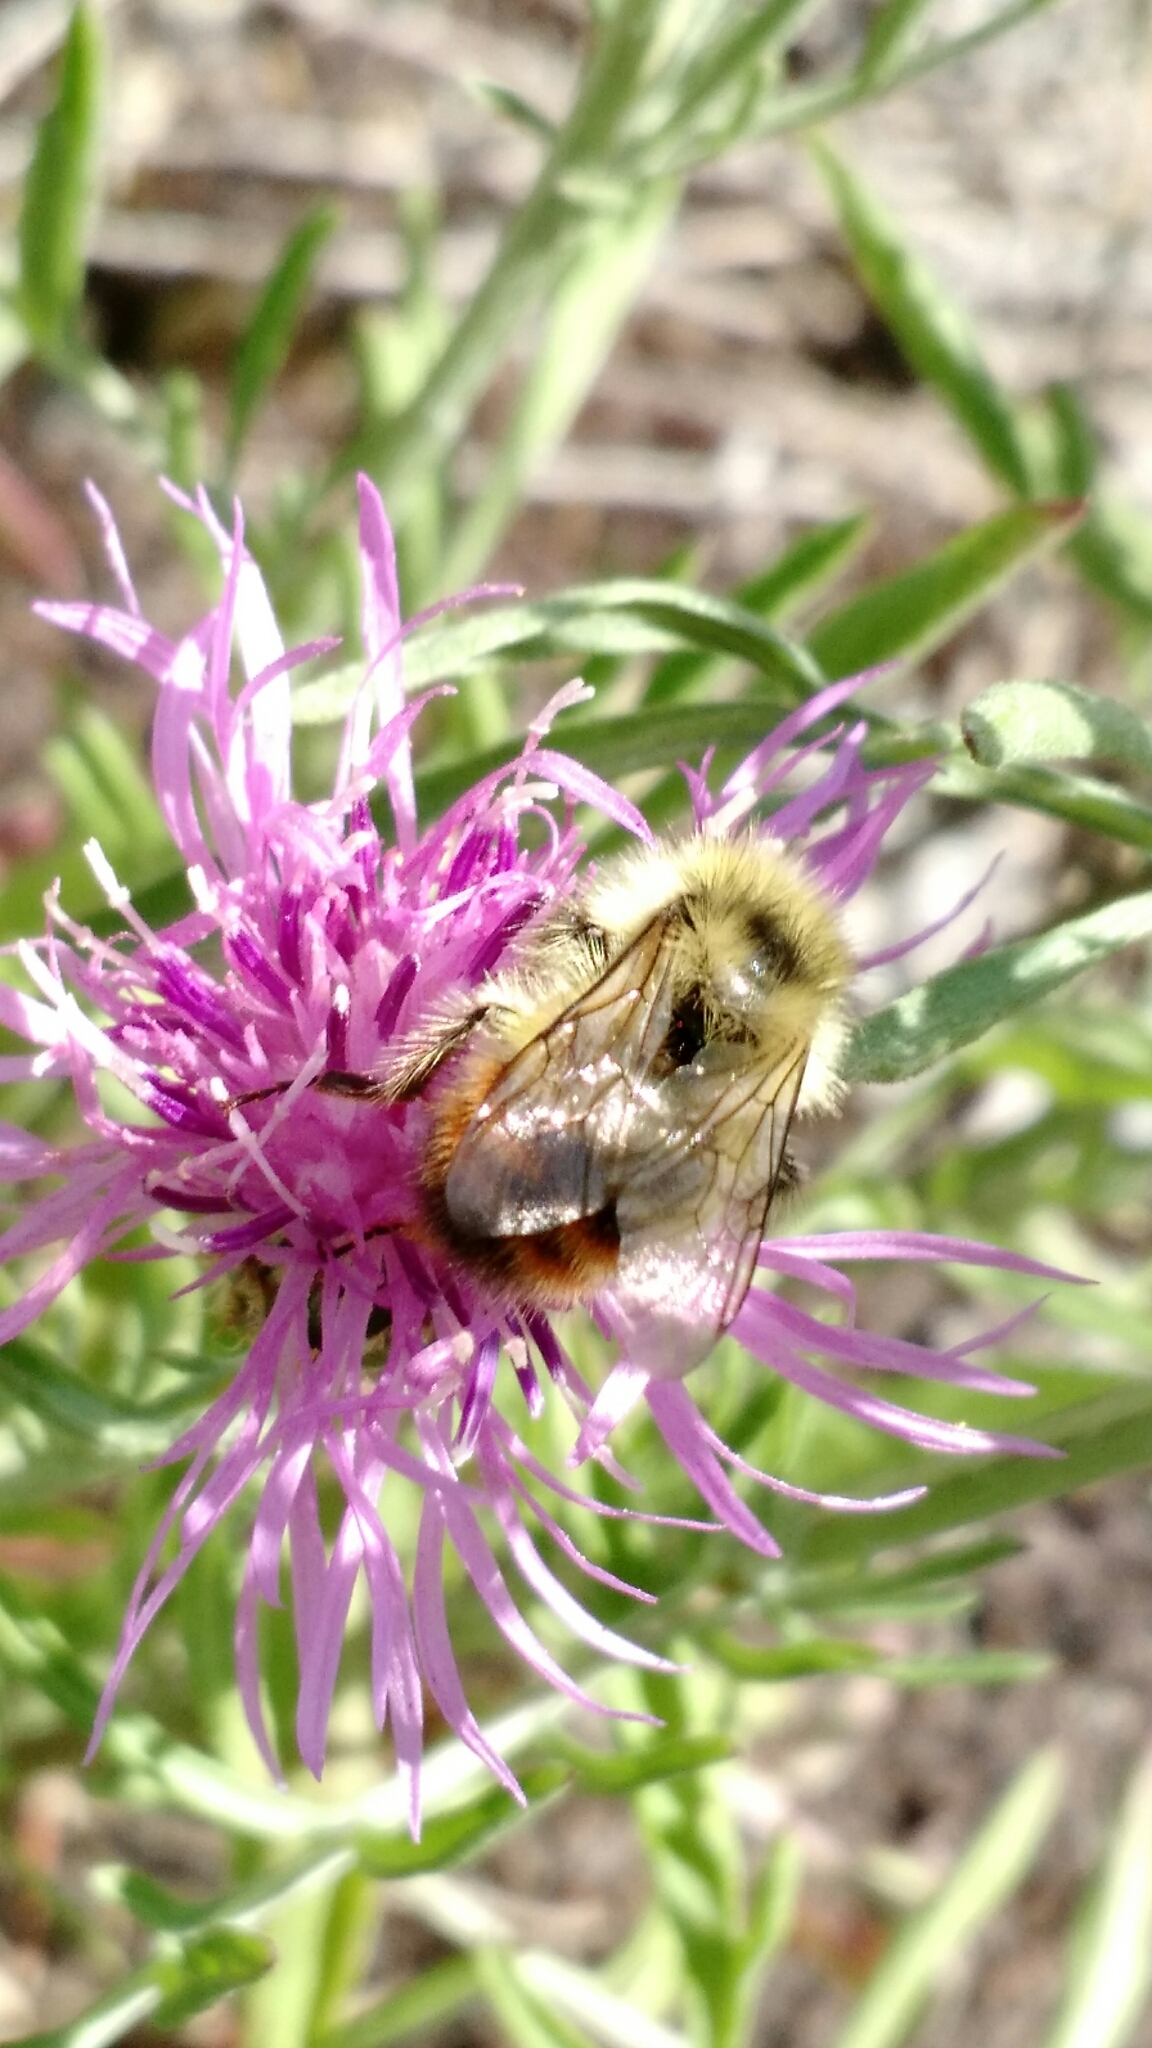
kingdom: Animalia
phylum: Arthropoda
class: Insecta
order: Hymenoptera
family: Apidae
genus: Bombus
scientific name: Bombus flavifrons
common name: Yellow head bumble bee
